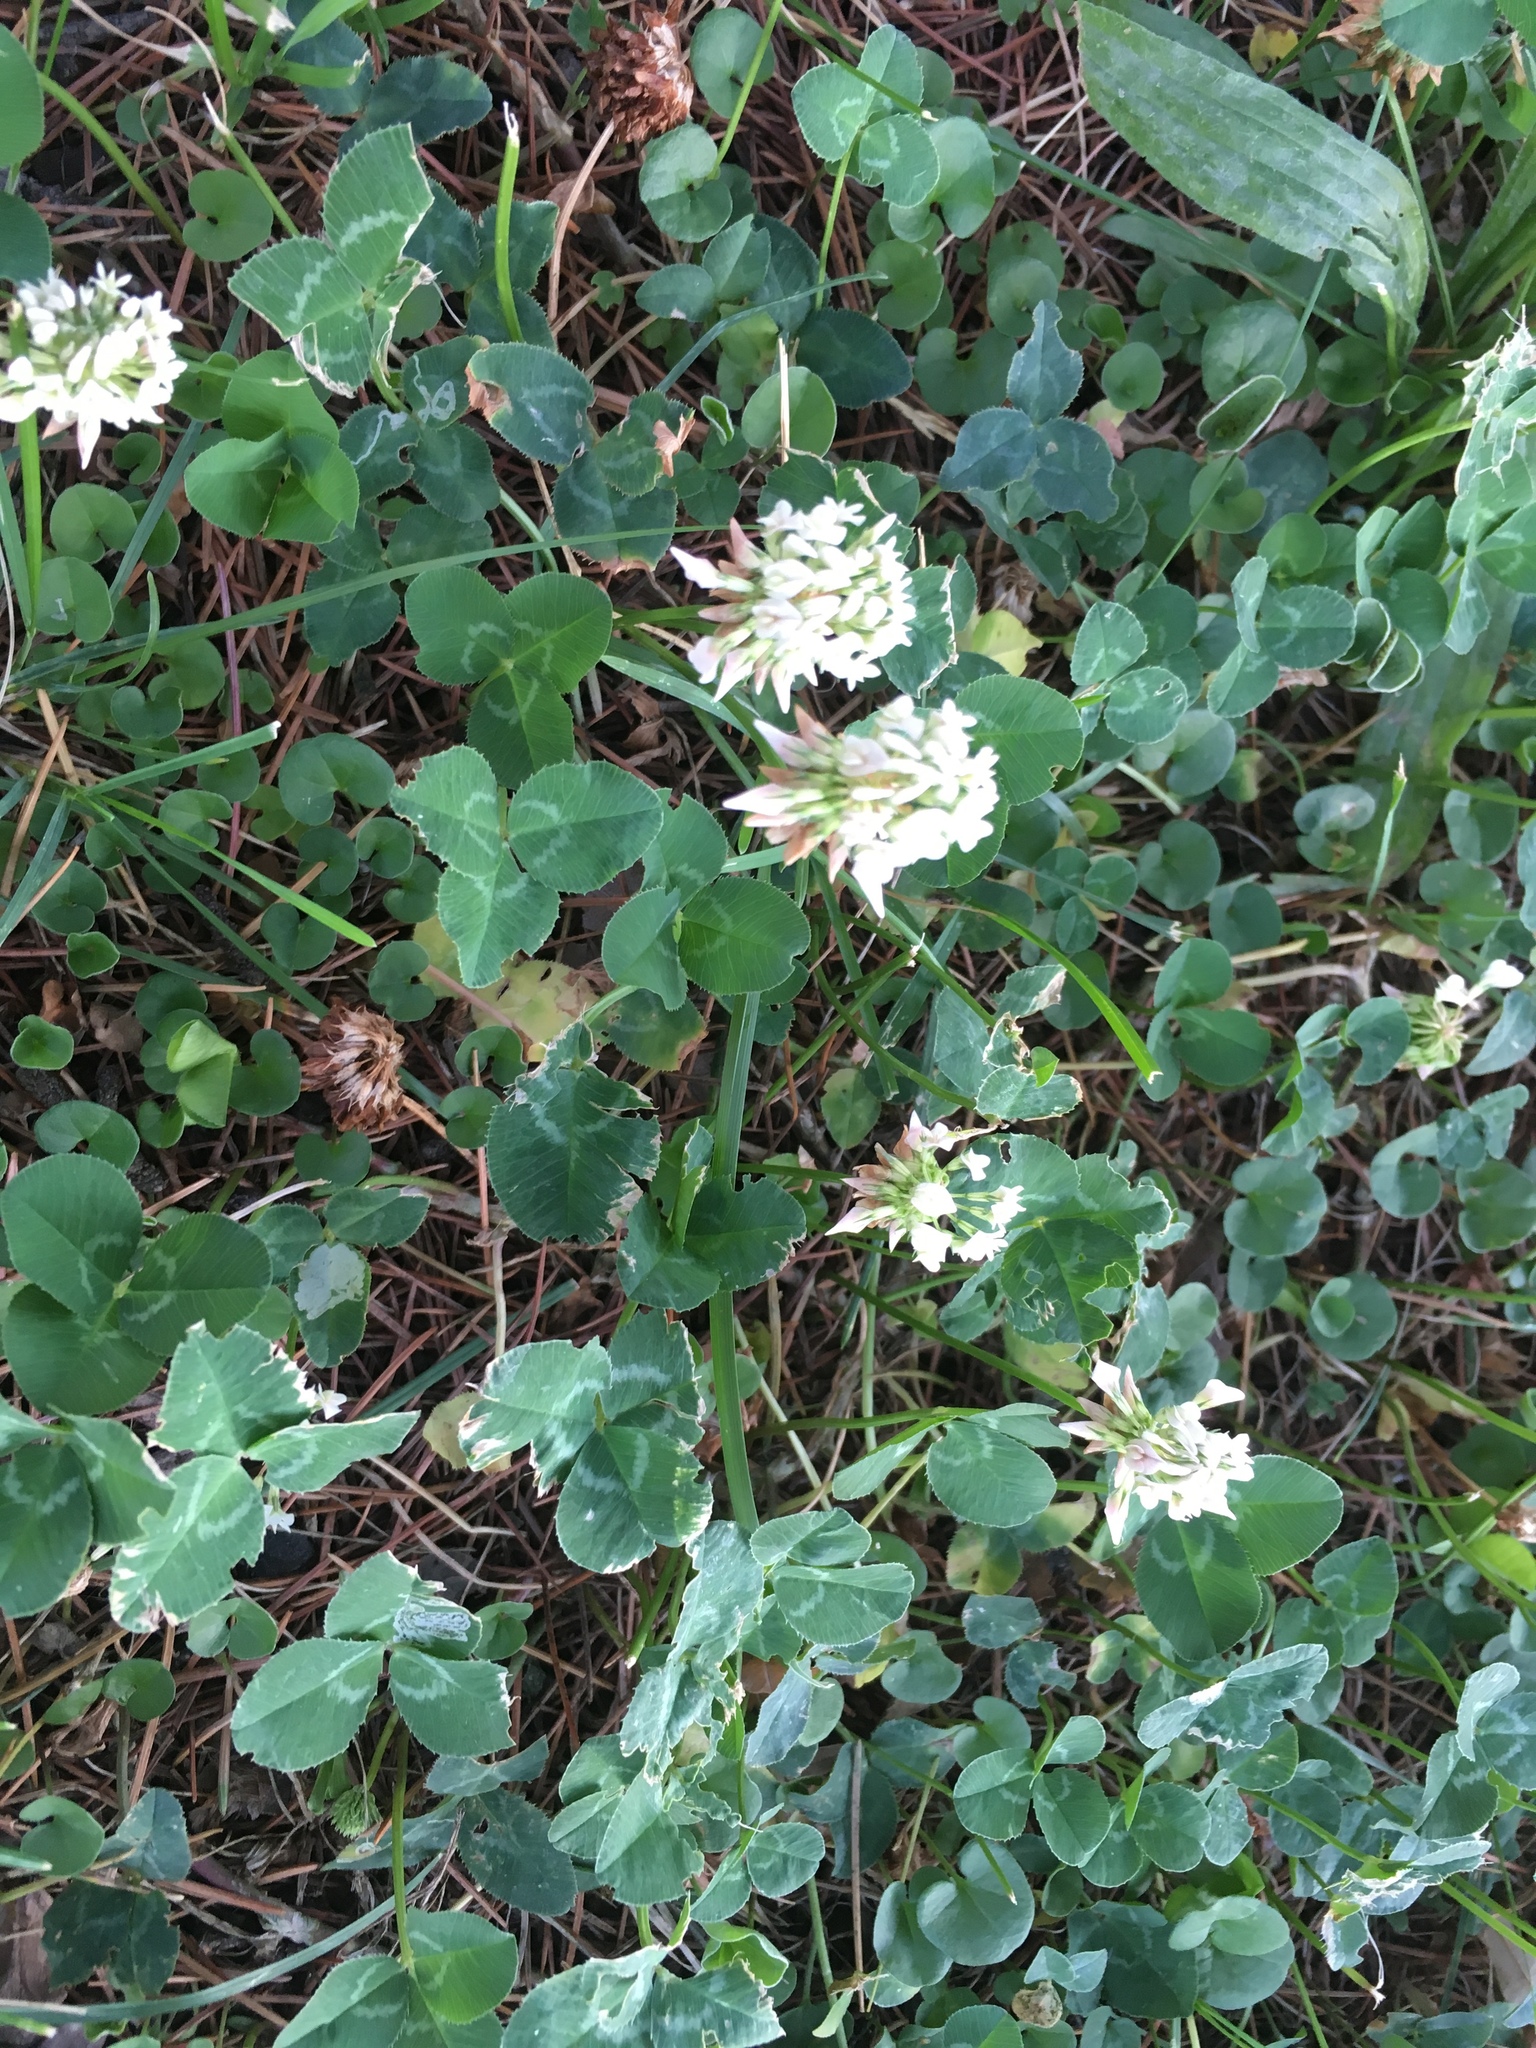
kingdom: Plantae
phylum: Tracheophyta
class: Magnoliopsida
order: Fabales
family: Fabaceae
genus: Trifolium
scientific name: Trifolium repens
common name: White clover
